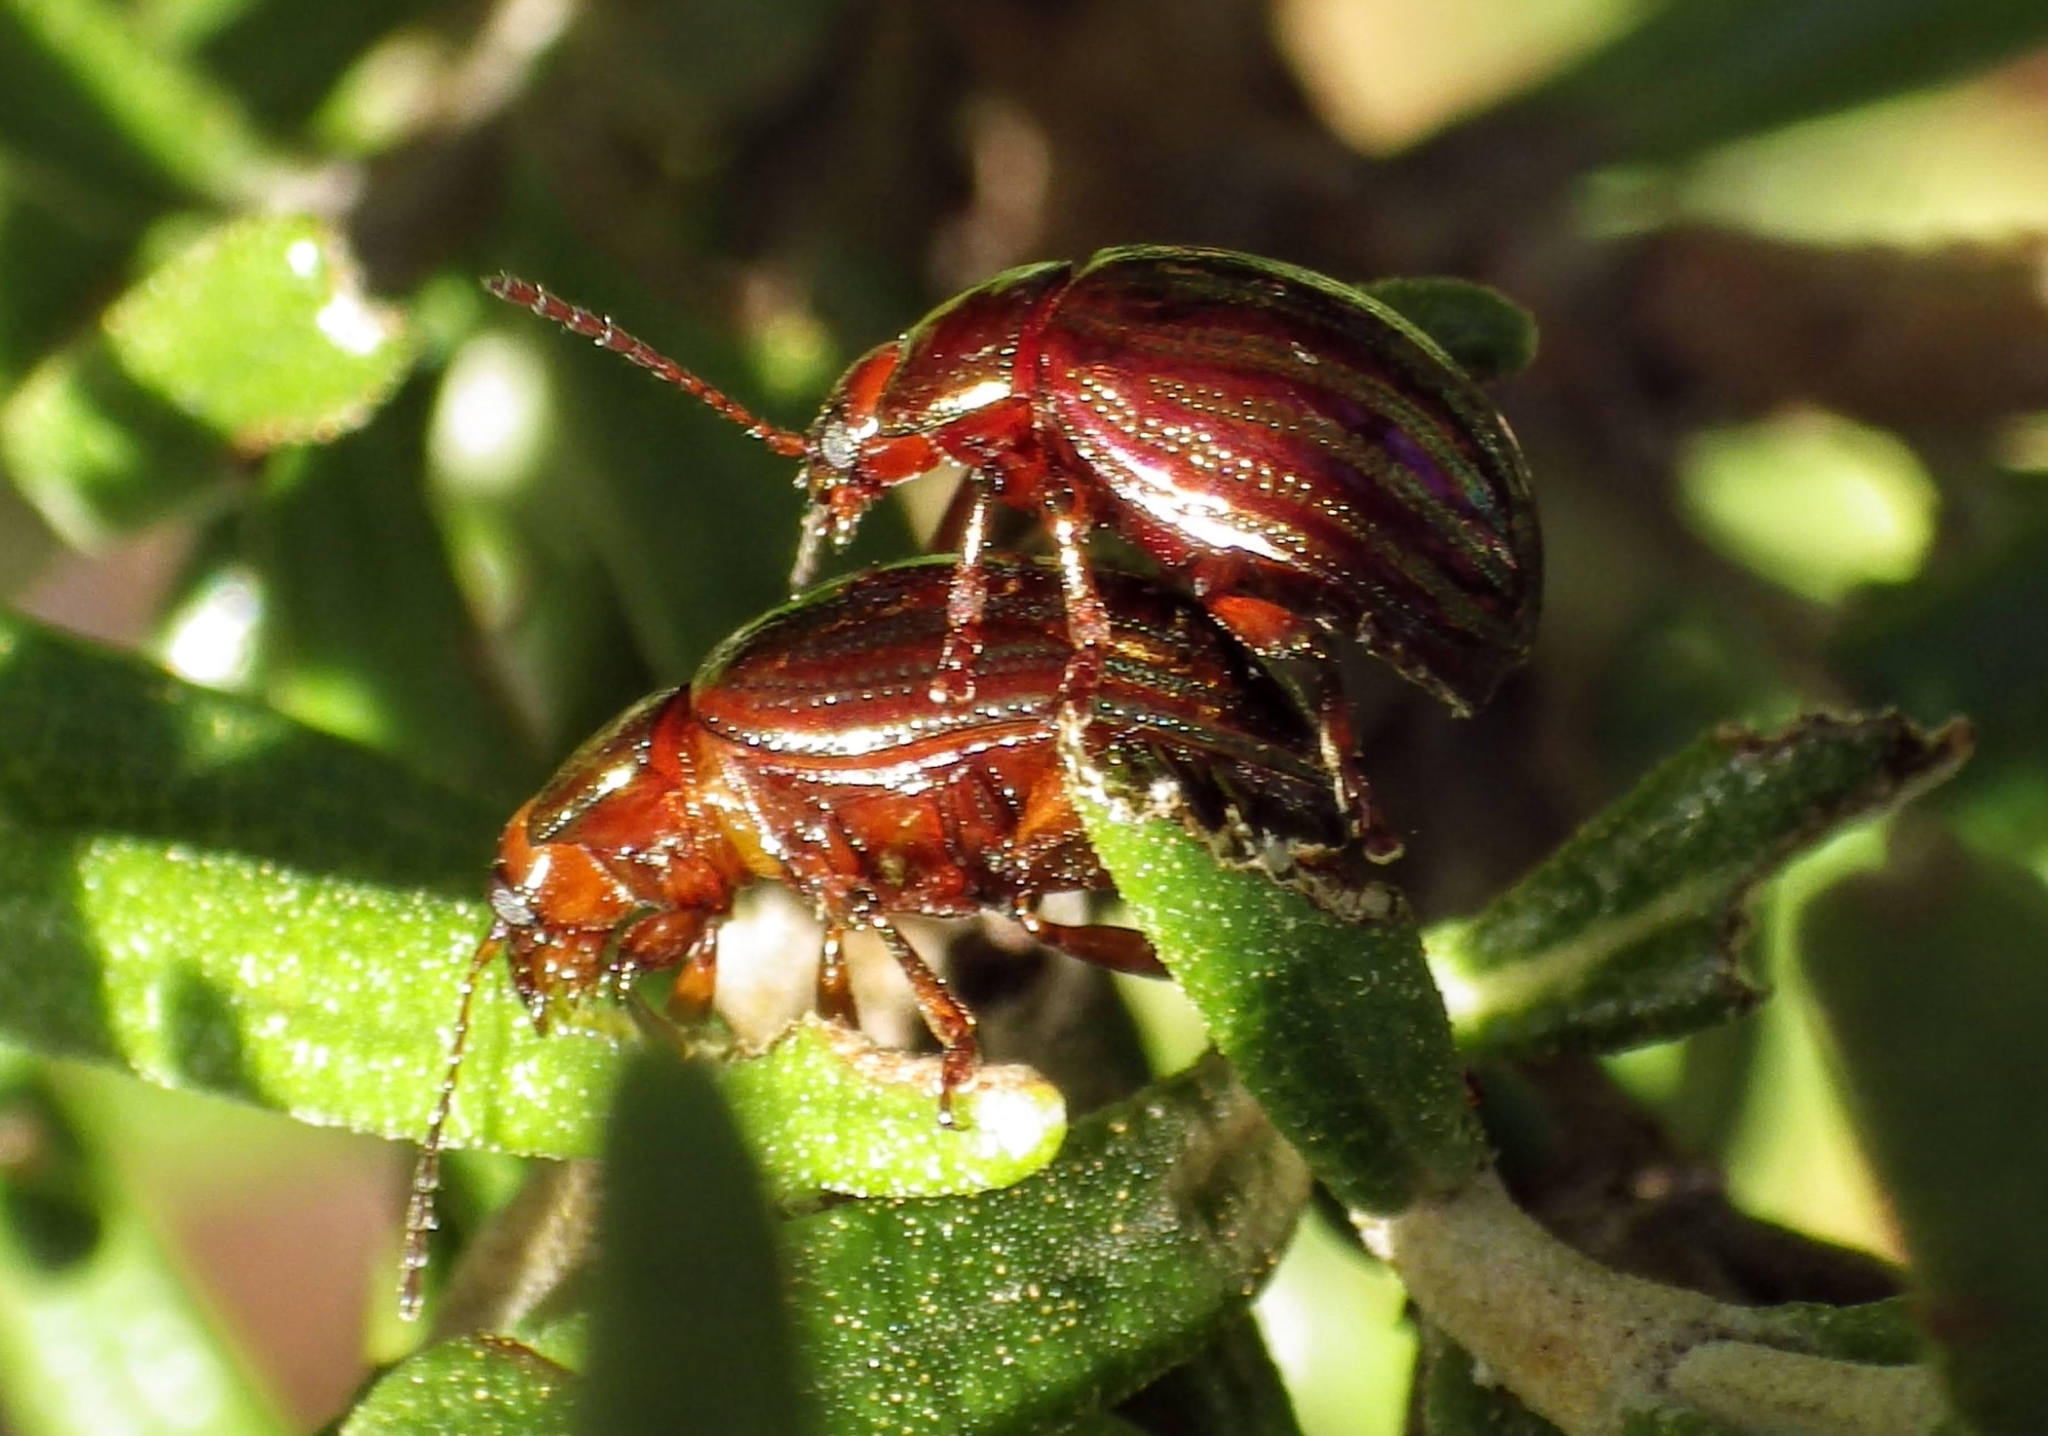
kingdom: Animalia
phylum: Arthropoda
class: Insecta
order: Coleoptera
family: Chrysomelidae
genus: Chrysolina
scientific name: Chrysolina americana
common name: Rosemary beetle
